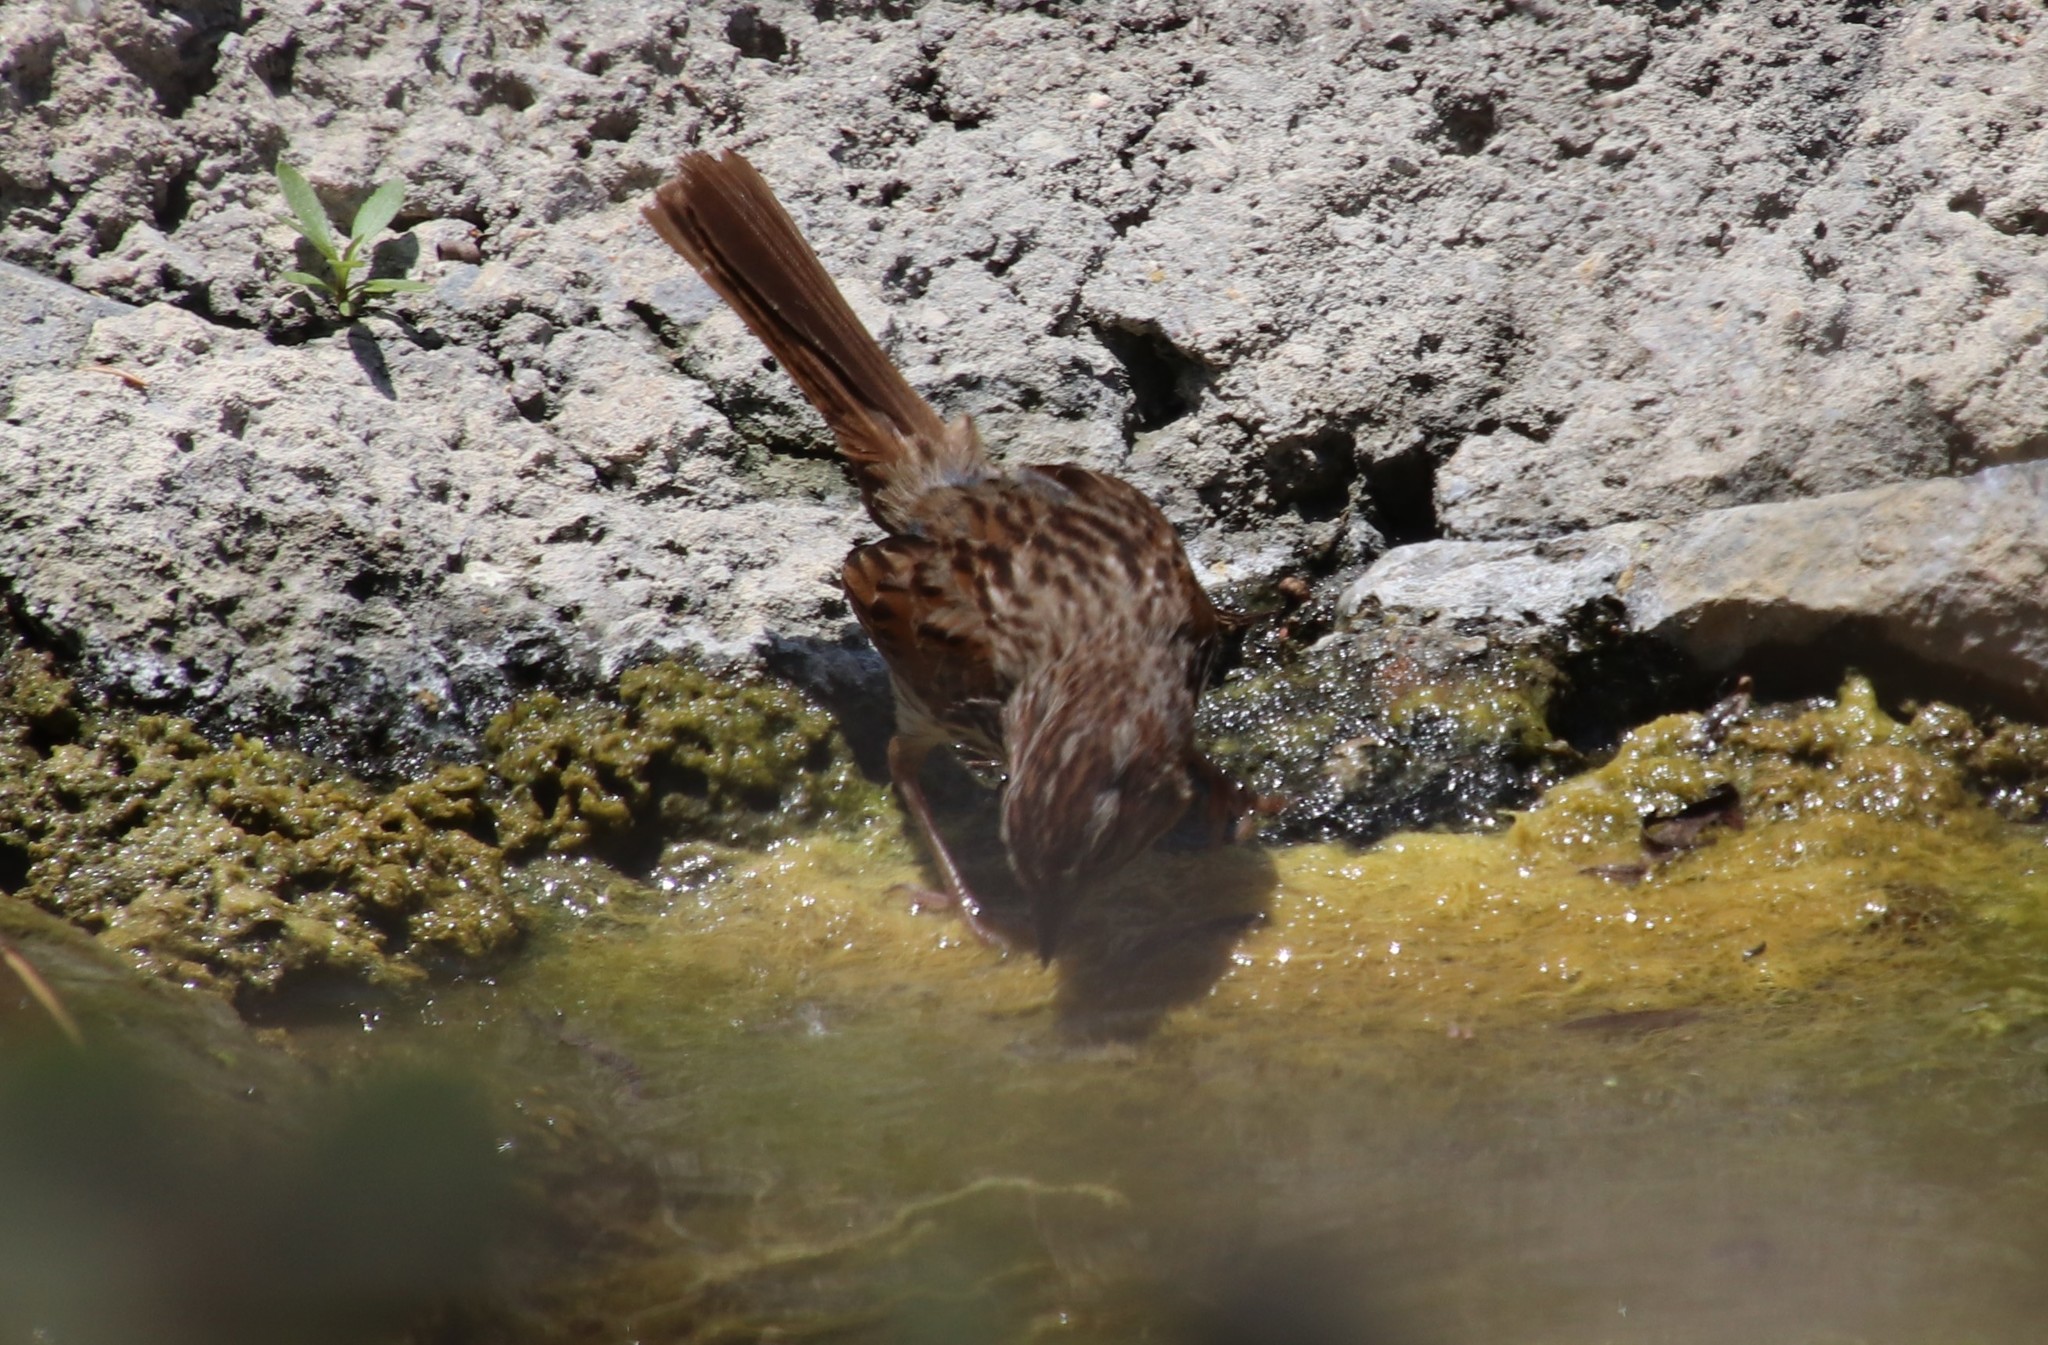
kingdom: Animalia
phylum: Chordata
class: Aves
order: Passeriformes
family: Passerellidae
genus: Melospiza
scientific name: Melospiza melodia
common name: Song sparrow
